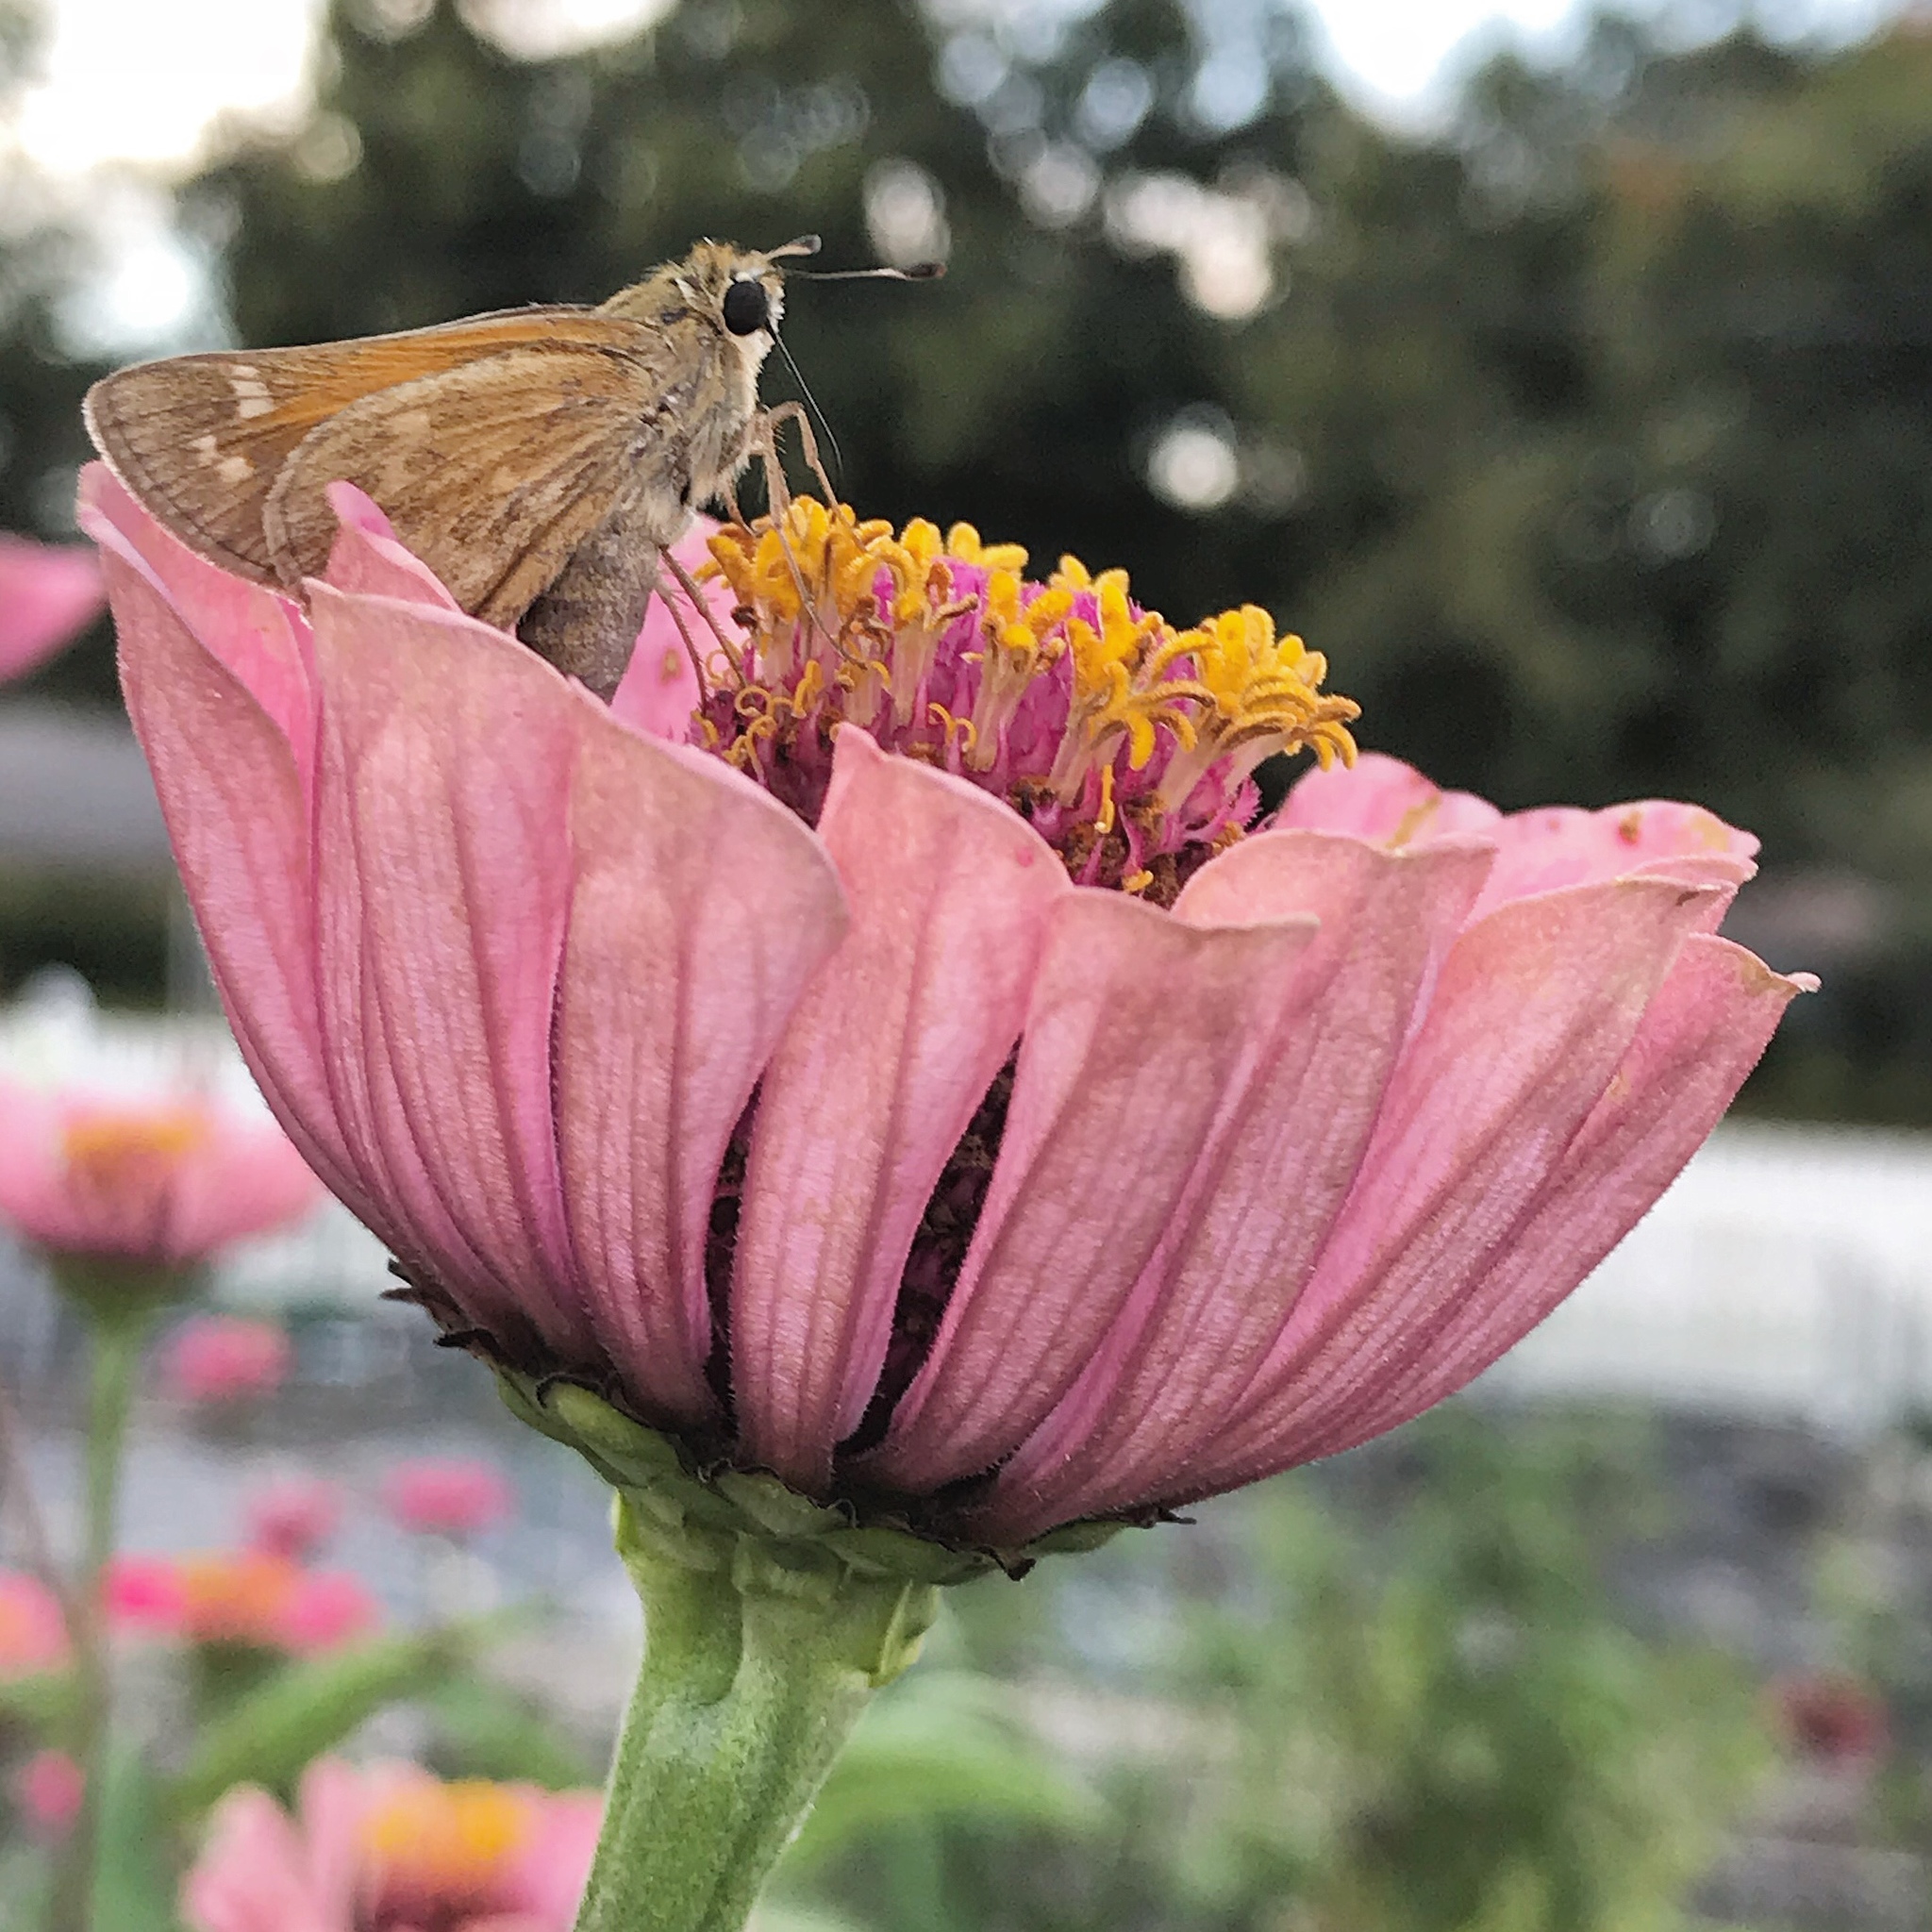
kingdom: Animalia
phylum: Arthropoda
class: Insecta
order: Lepidoptera
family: Hesperiidae
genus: Atalopedes
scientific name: Atalopedes
